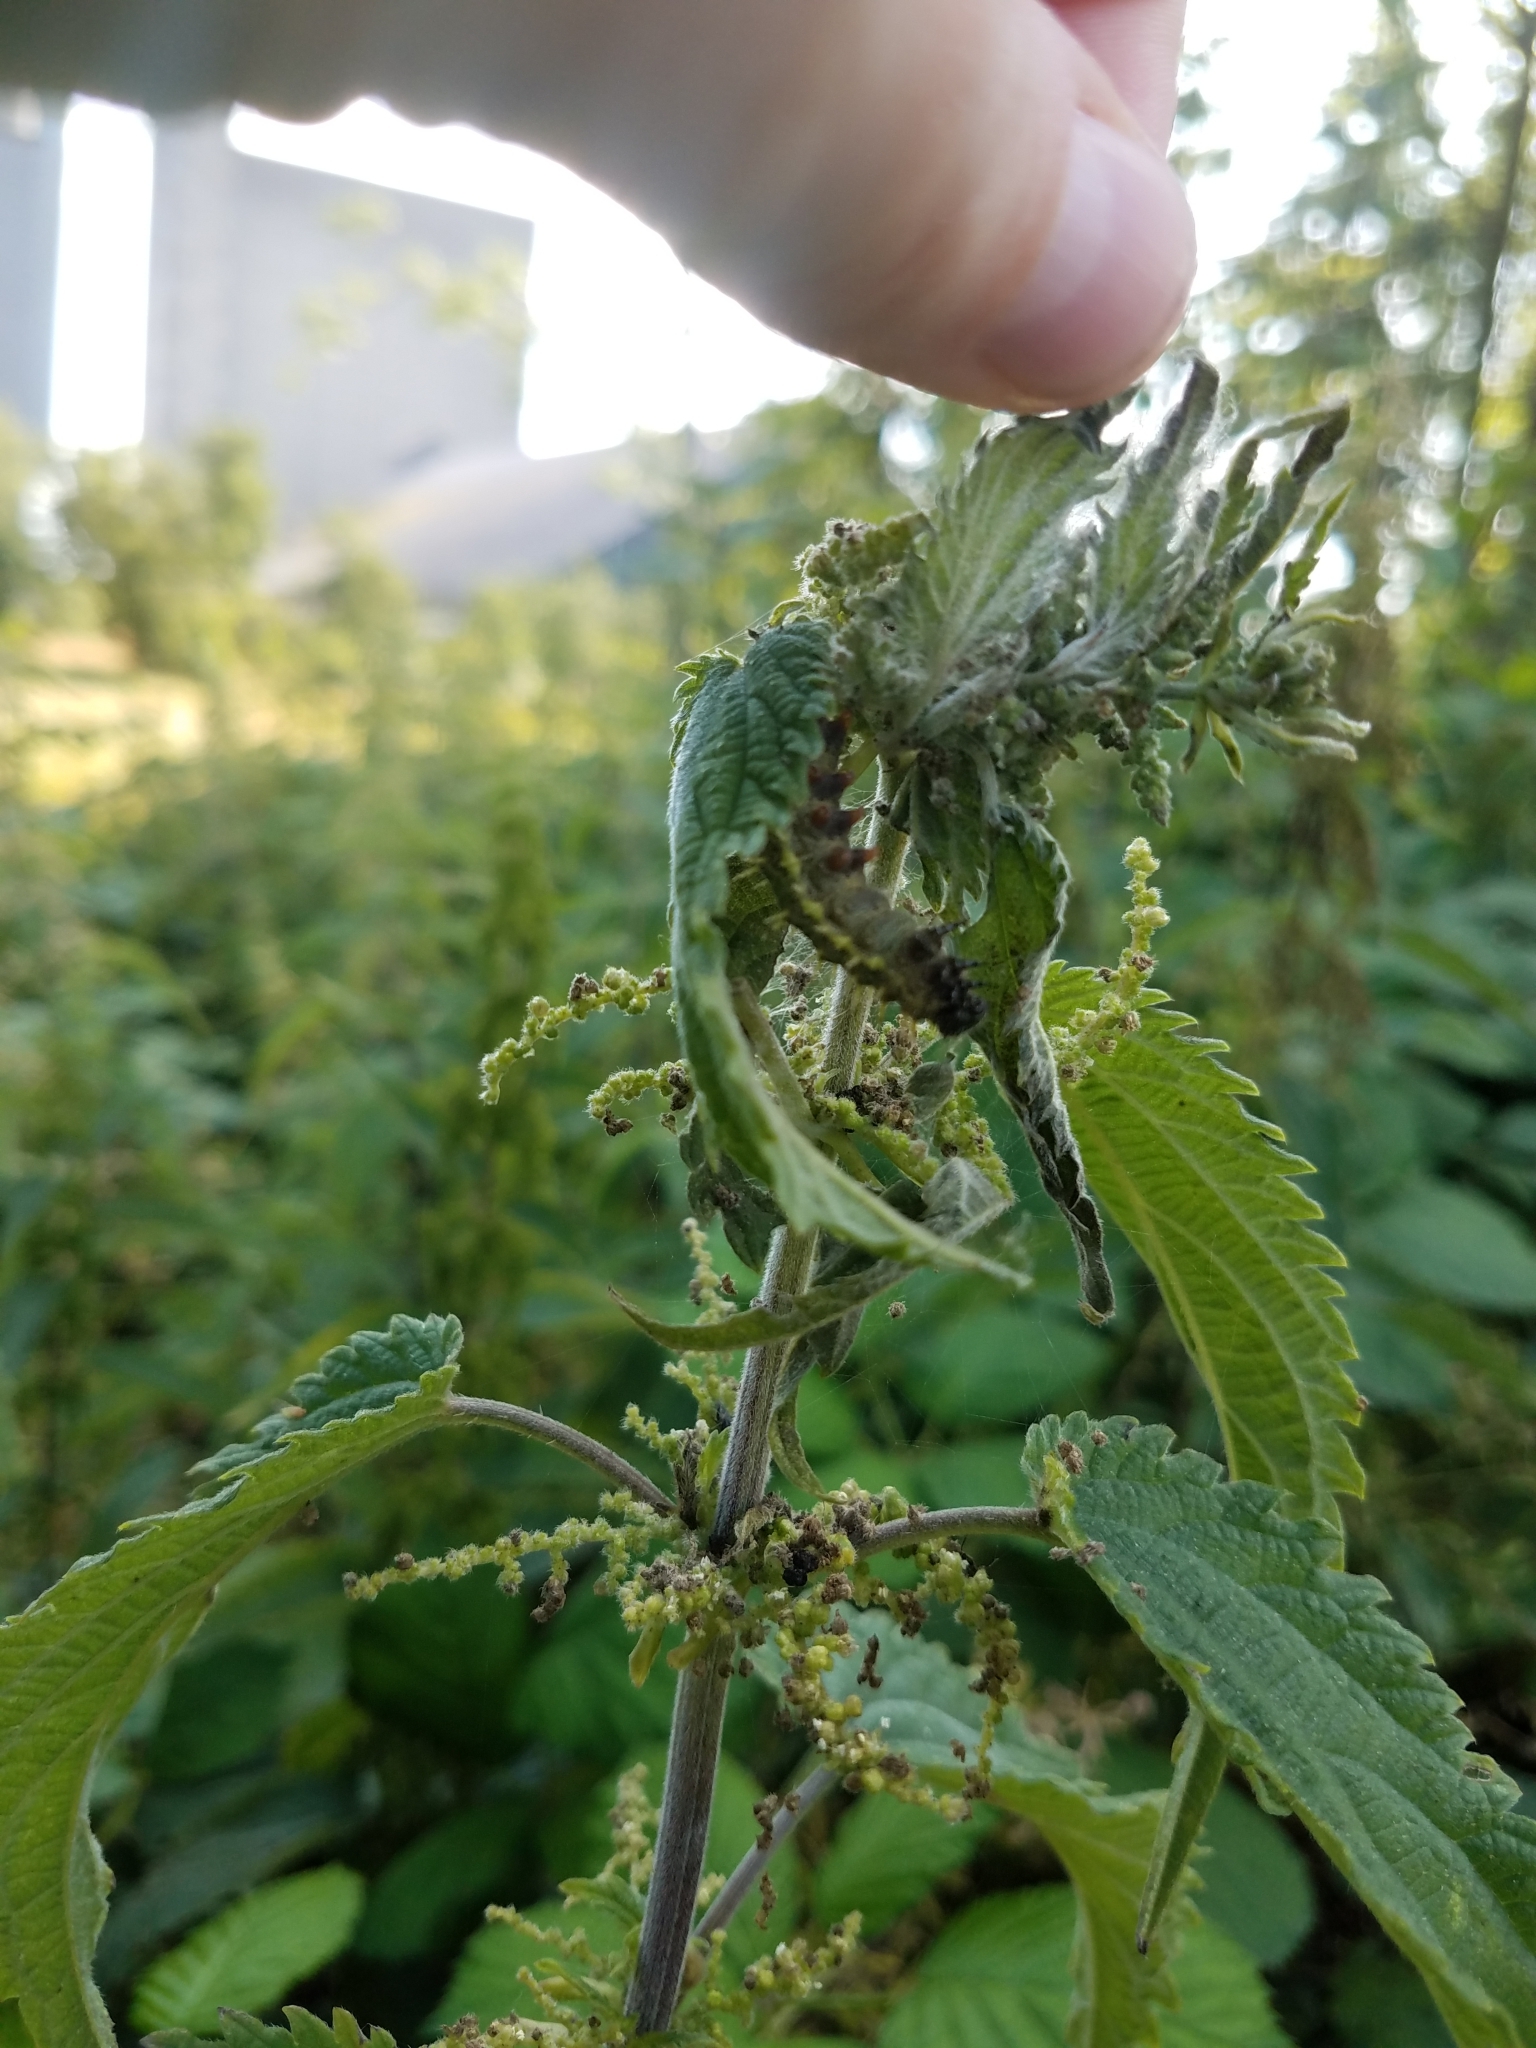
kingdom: Animalia
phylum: Arthropoda
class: Insecta
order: Lepidoptera
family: Nymphalidae
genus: Vanessa
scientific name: Vanessa atalanta
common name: Red admiral
